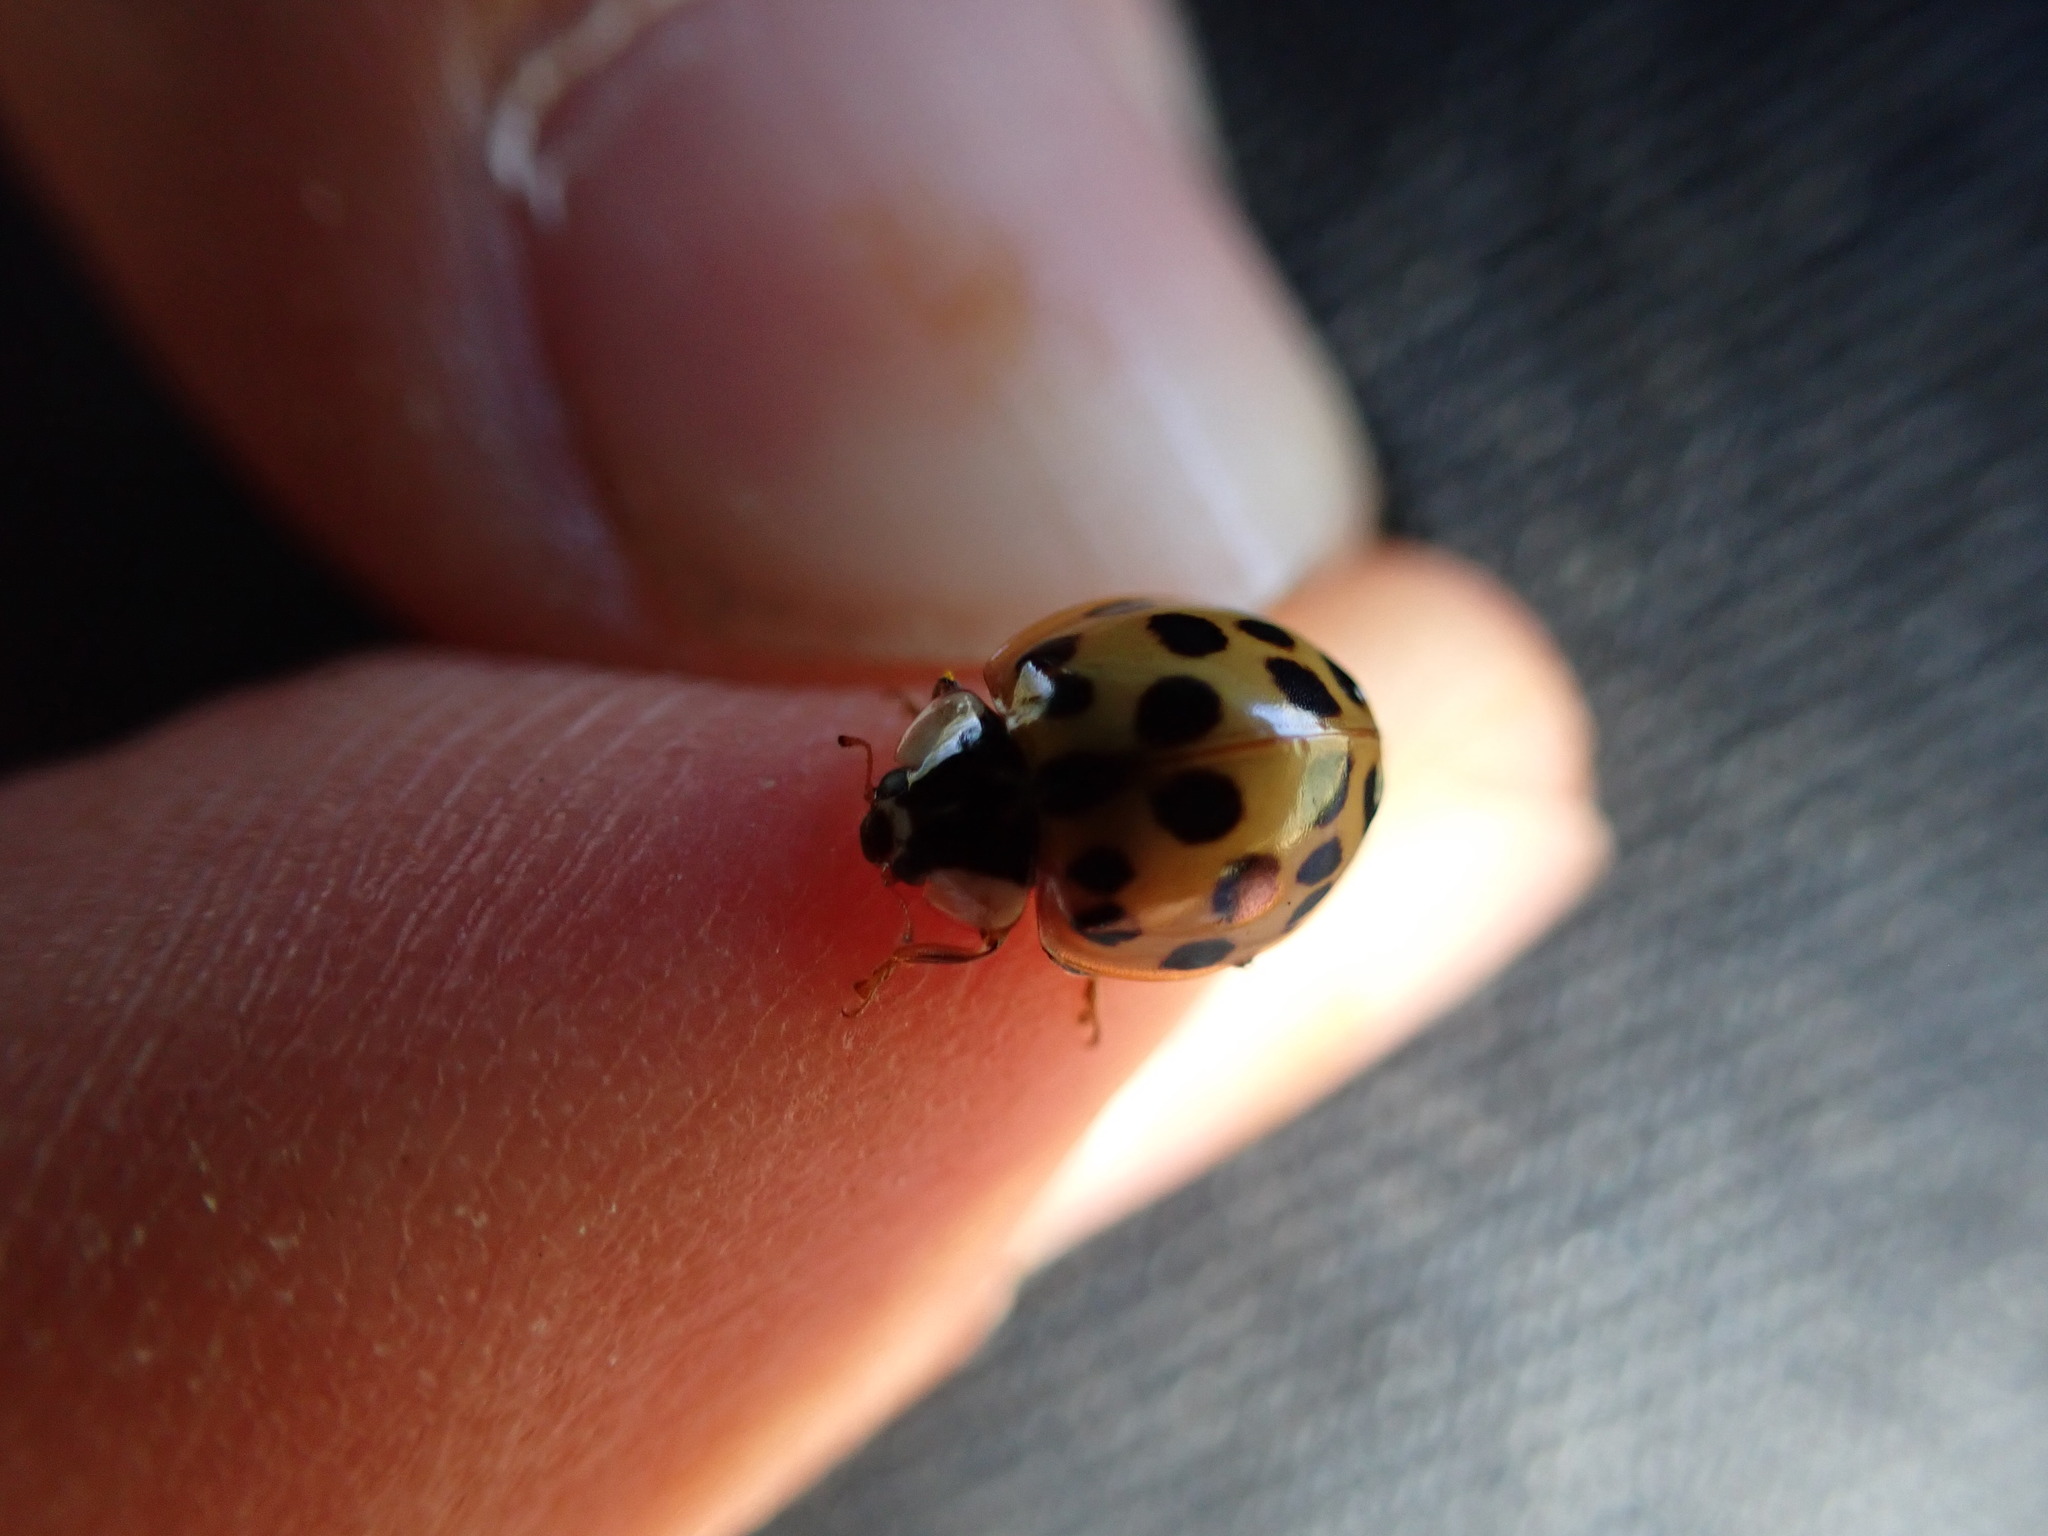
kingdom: Animalia
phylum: Arthropoda
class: Insecta
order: Coleoptera
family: Coccinellidae
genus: Harmonia
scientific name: Harmonia axyridis
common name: Harlequin ladybird
